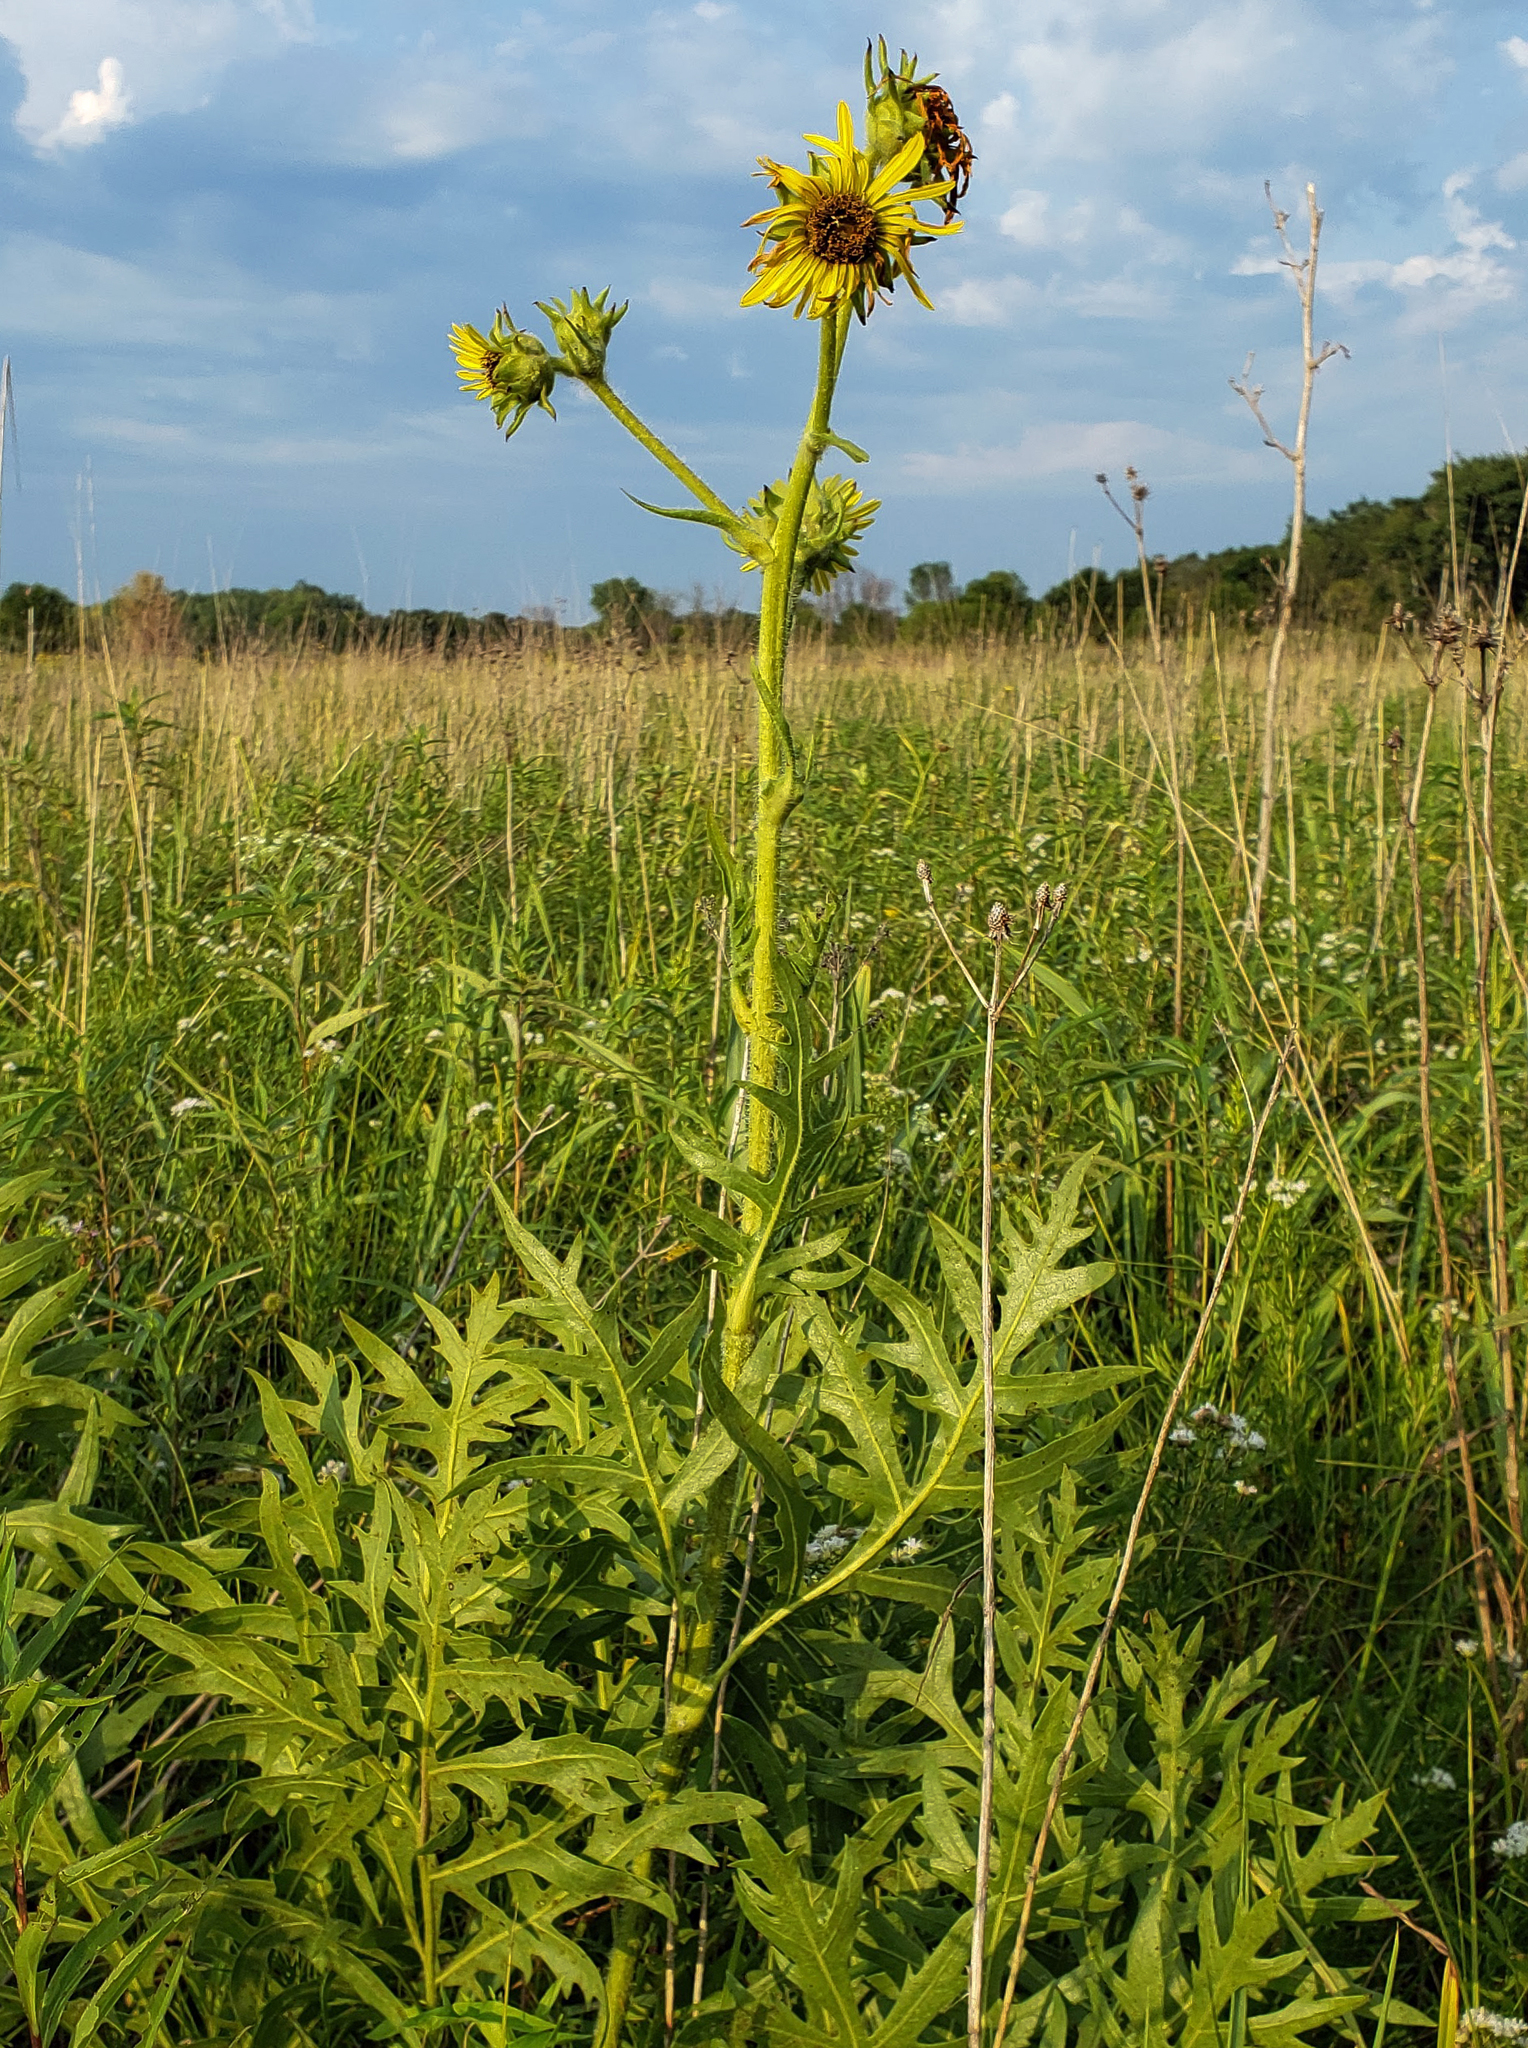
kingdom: Plantae
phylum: Tracheophyta
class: Magnoliopsida
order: Asterales
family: Asteraceae
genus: Silphium
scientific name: Silphium laciniatum
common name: Polarplant
